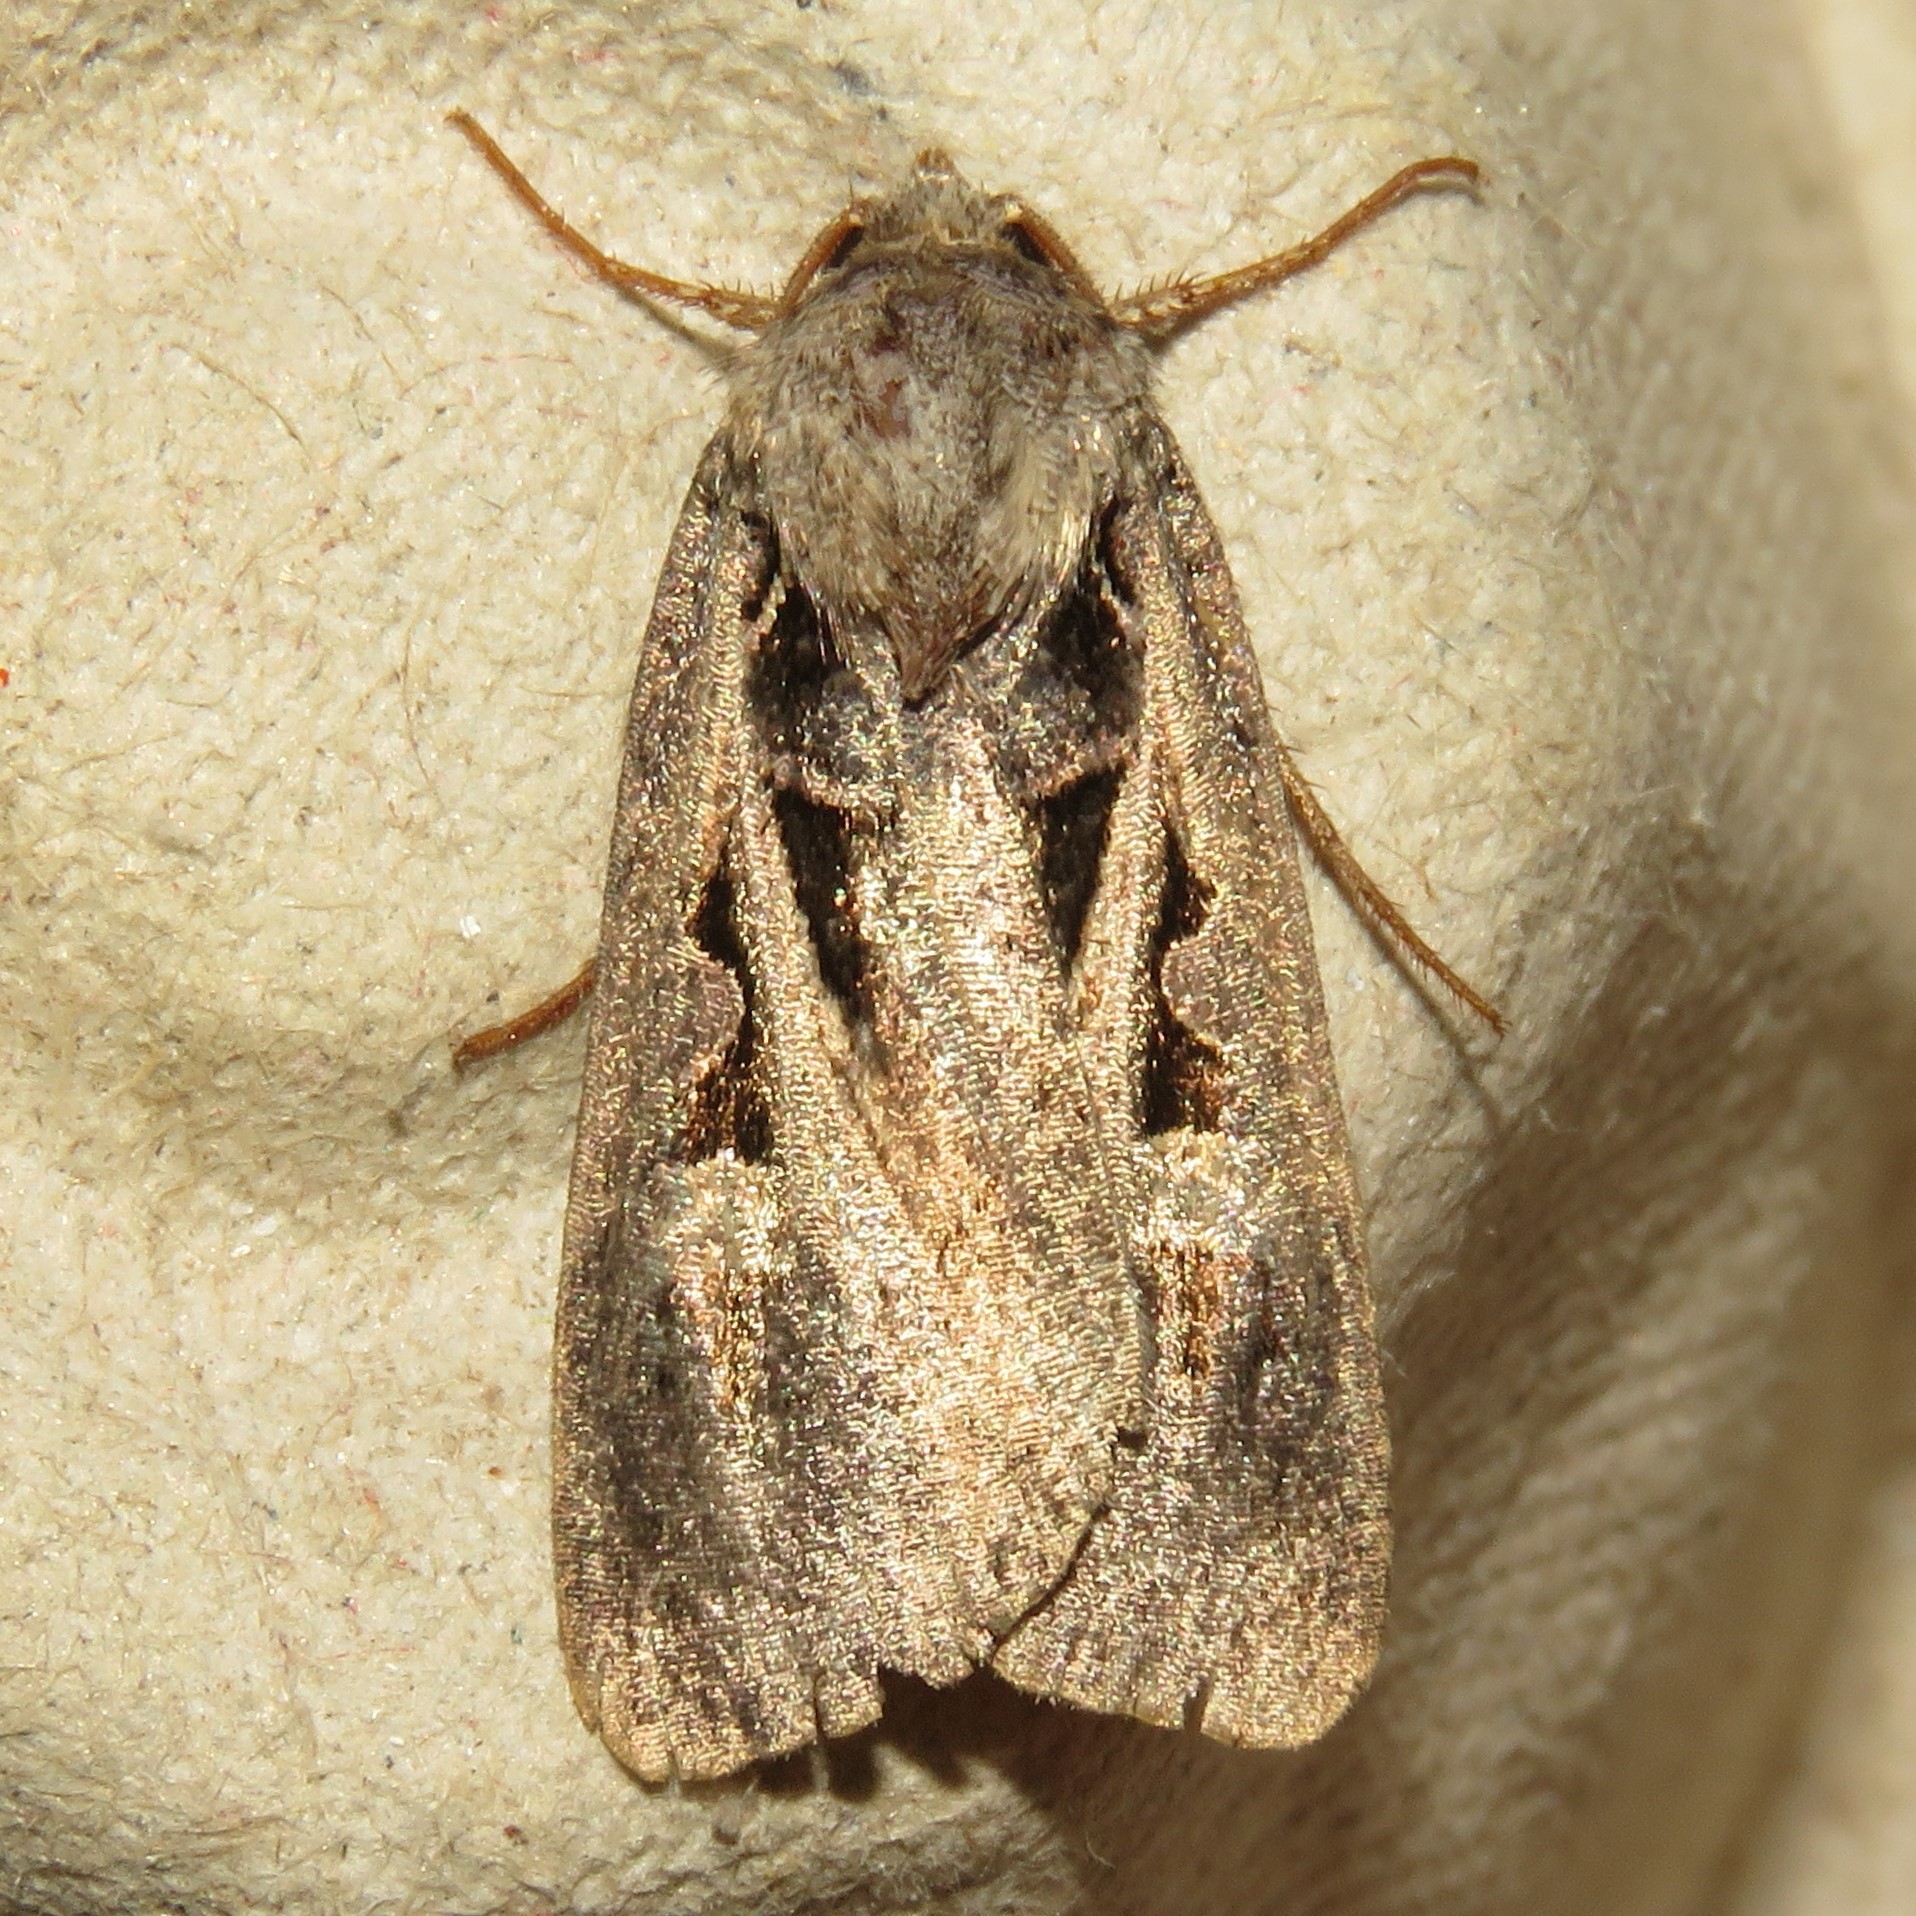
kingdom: Animalia
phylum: Arthropoda
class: Insecta
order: Lepidoptera
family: Noctuidae
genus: Feltia
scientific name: Feltia herilis
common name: Master's dart
